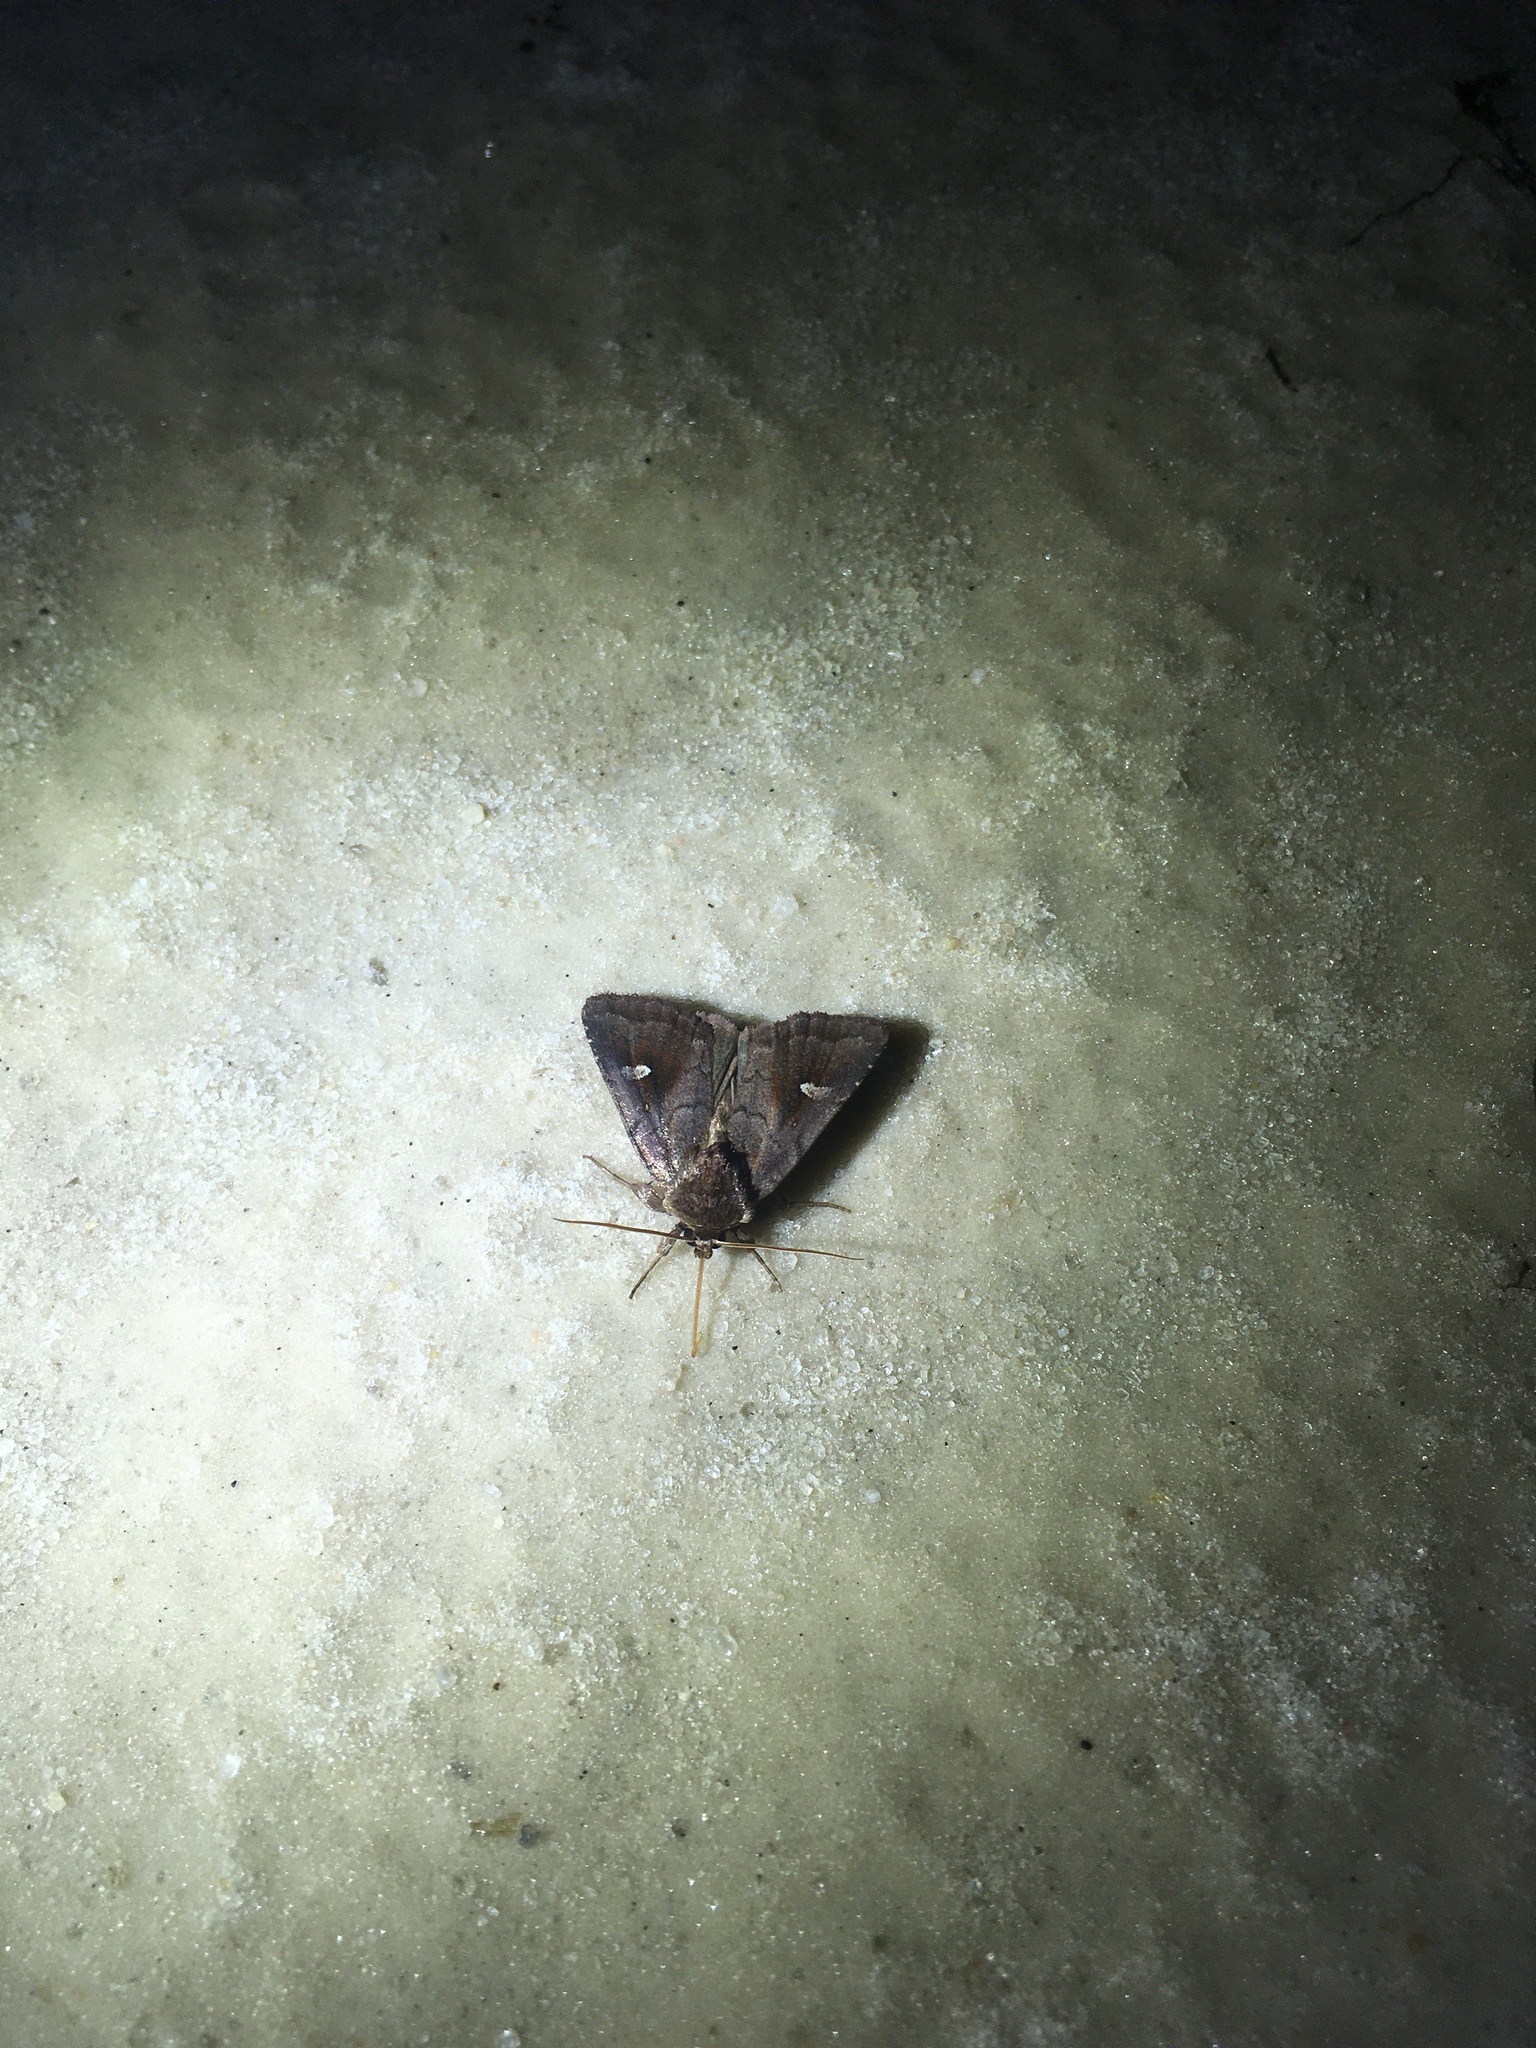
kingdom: Animalia
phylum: Arthropoda
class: Insecta
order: Lepidoptera
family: Noctuidae
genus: Iodopepla
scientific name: Iodopepla ualbum
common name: White-eyed borer moth
